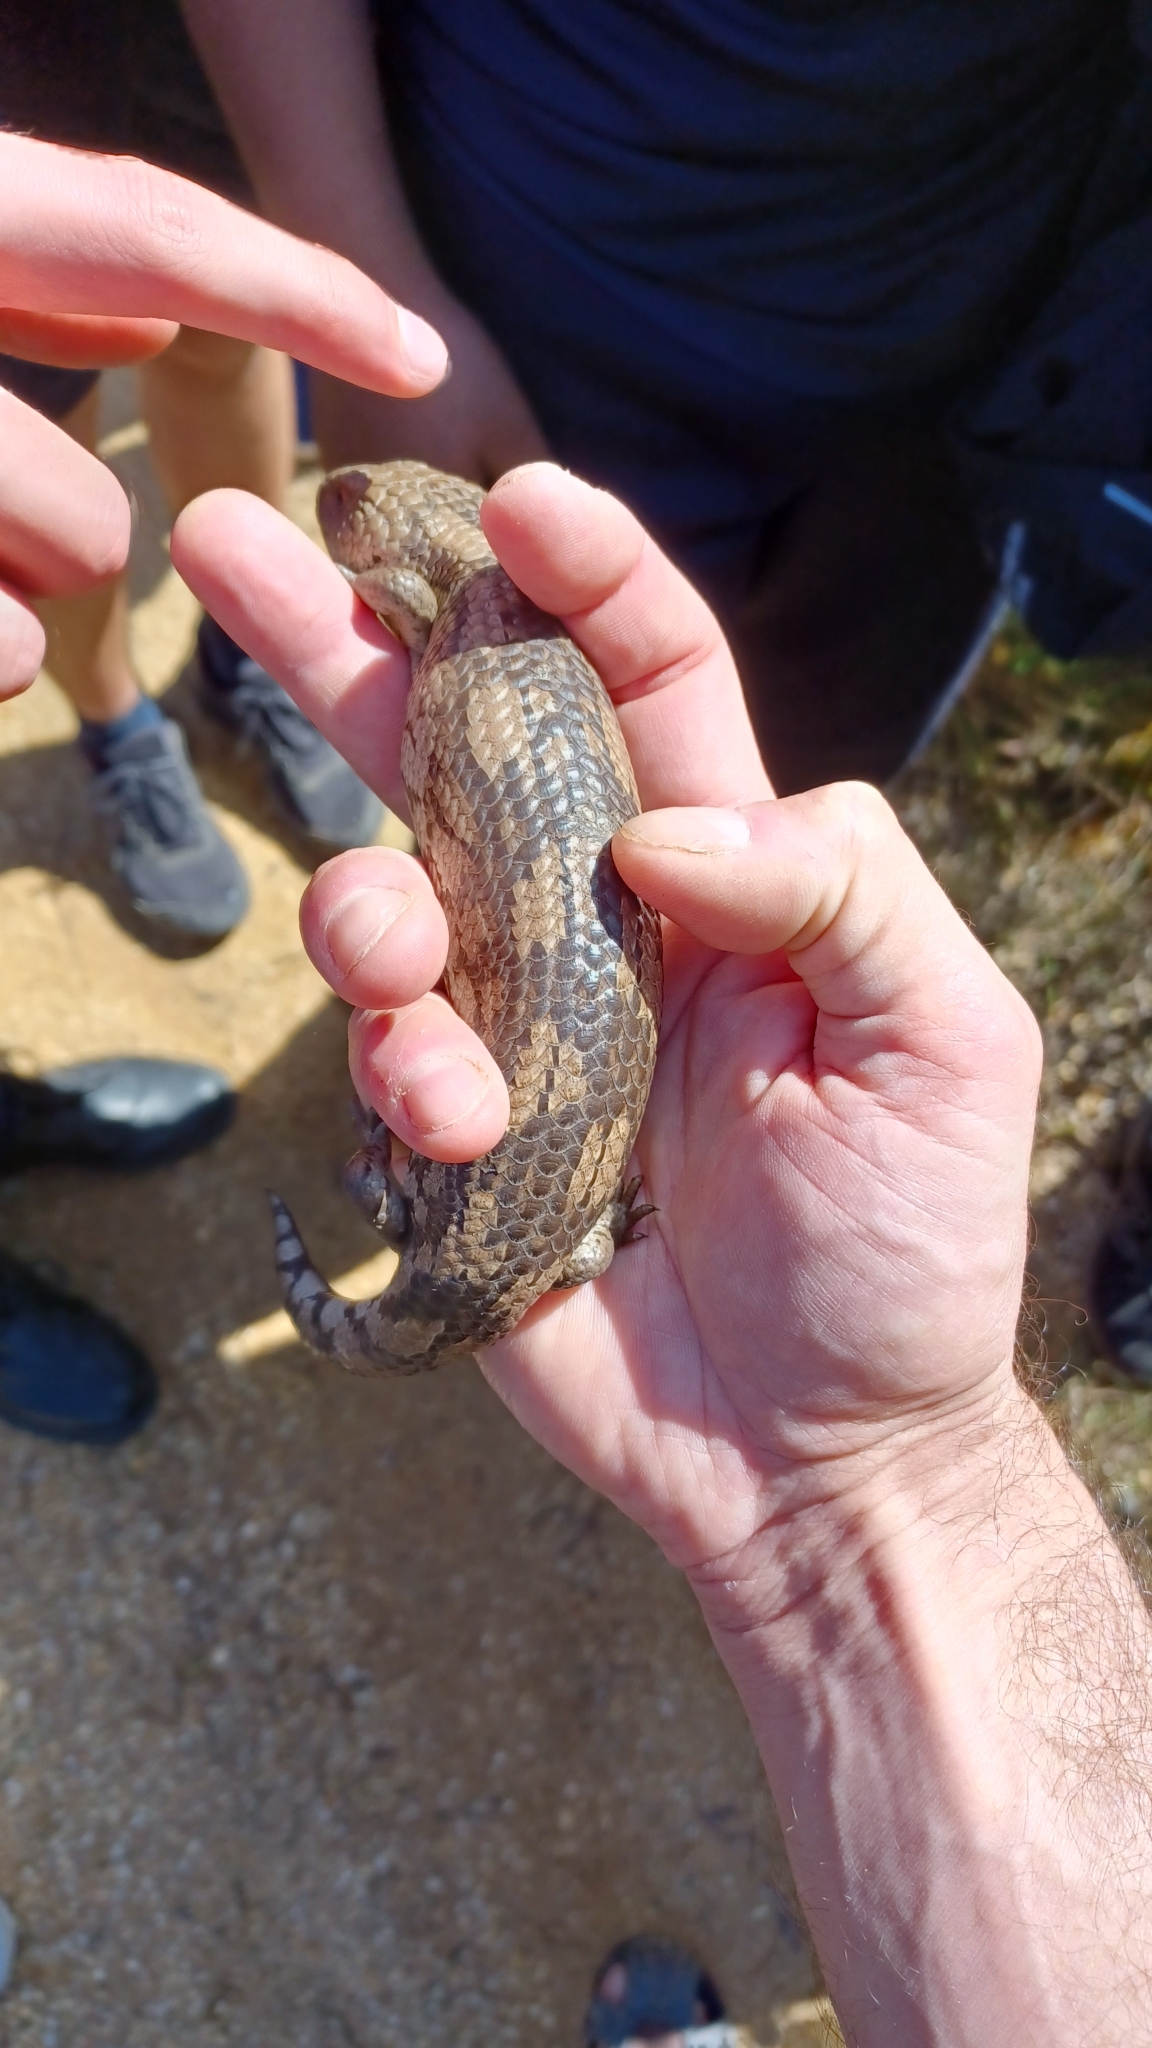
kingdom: Animalia
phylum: Chordata
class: Squamata
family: Scincidae
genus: Tiliqua
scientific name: Tiliqua nigrolutea
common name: Blotched blue-tongued lizard
